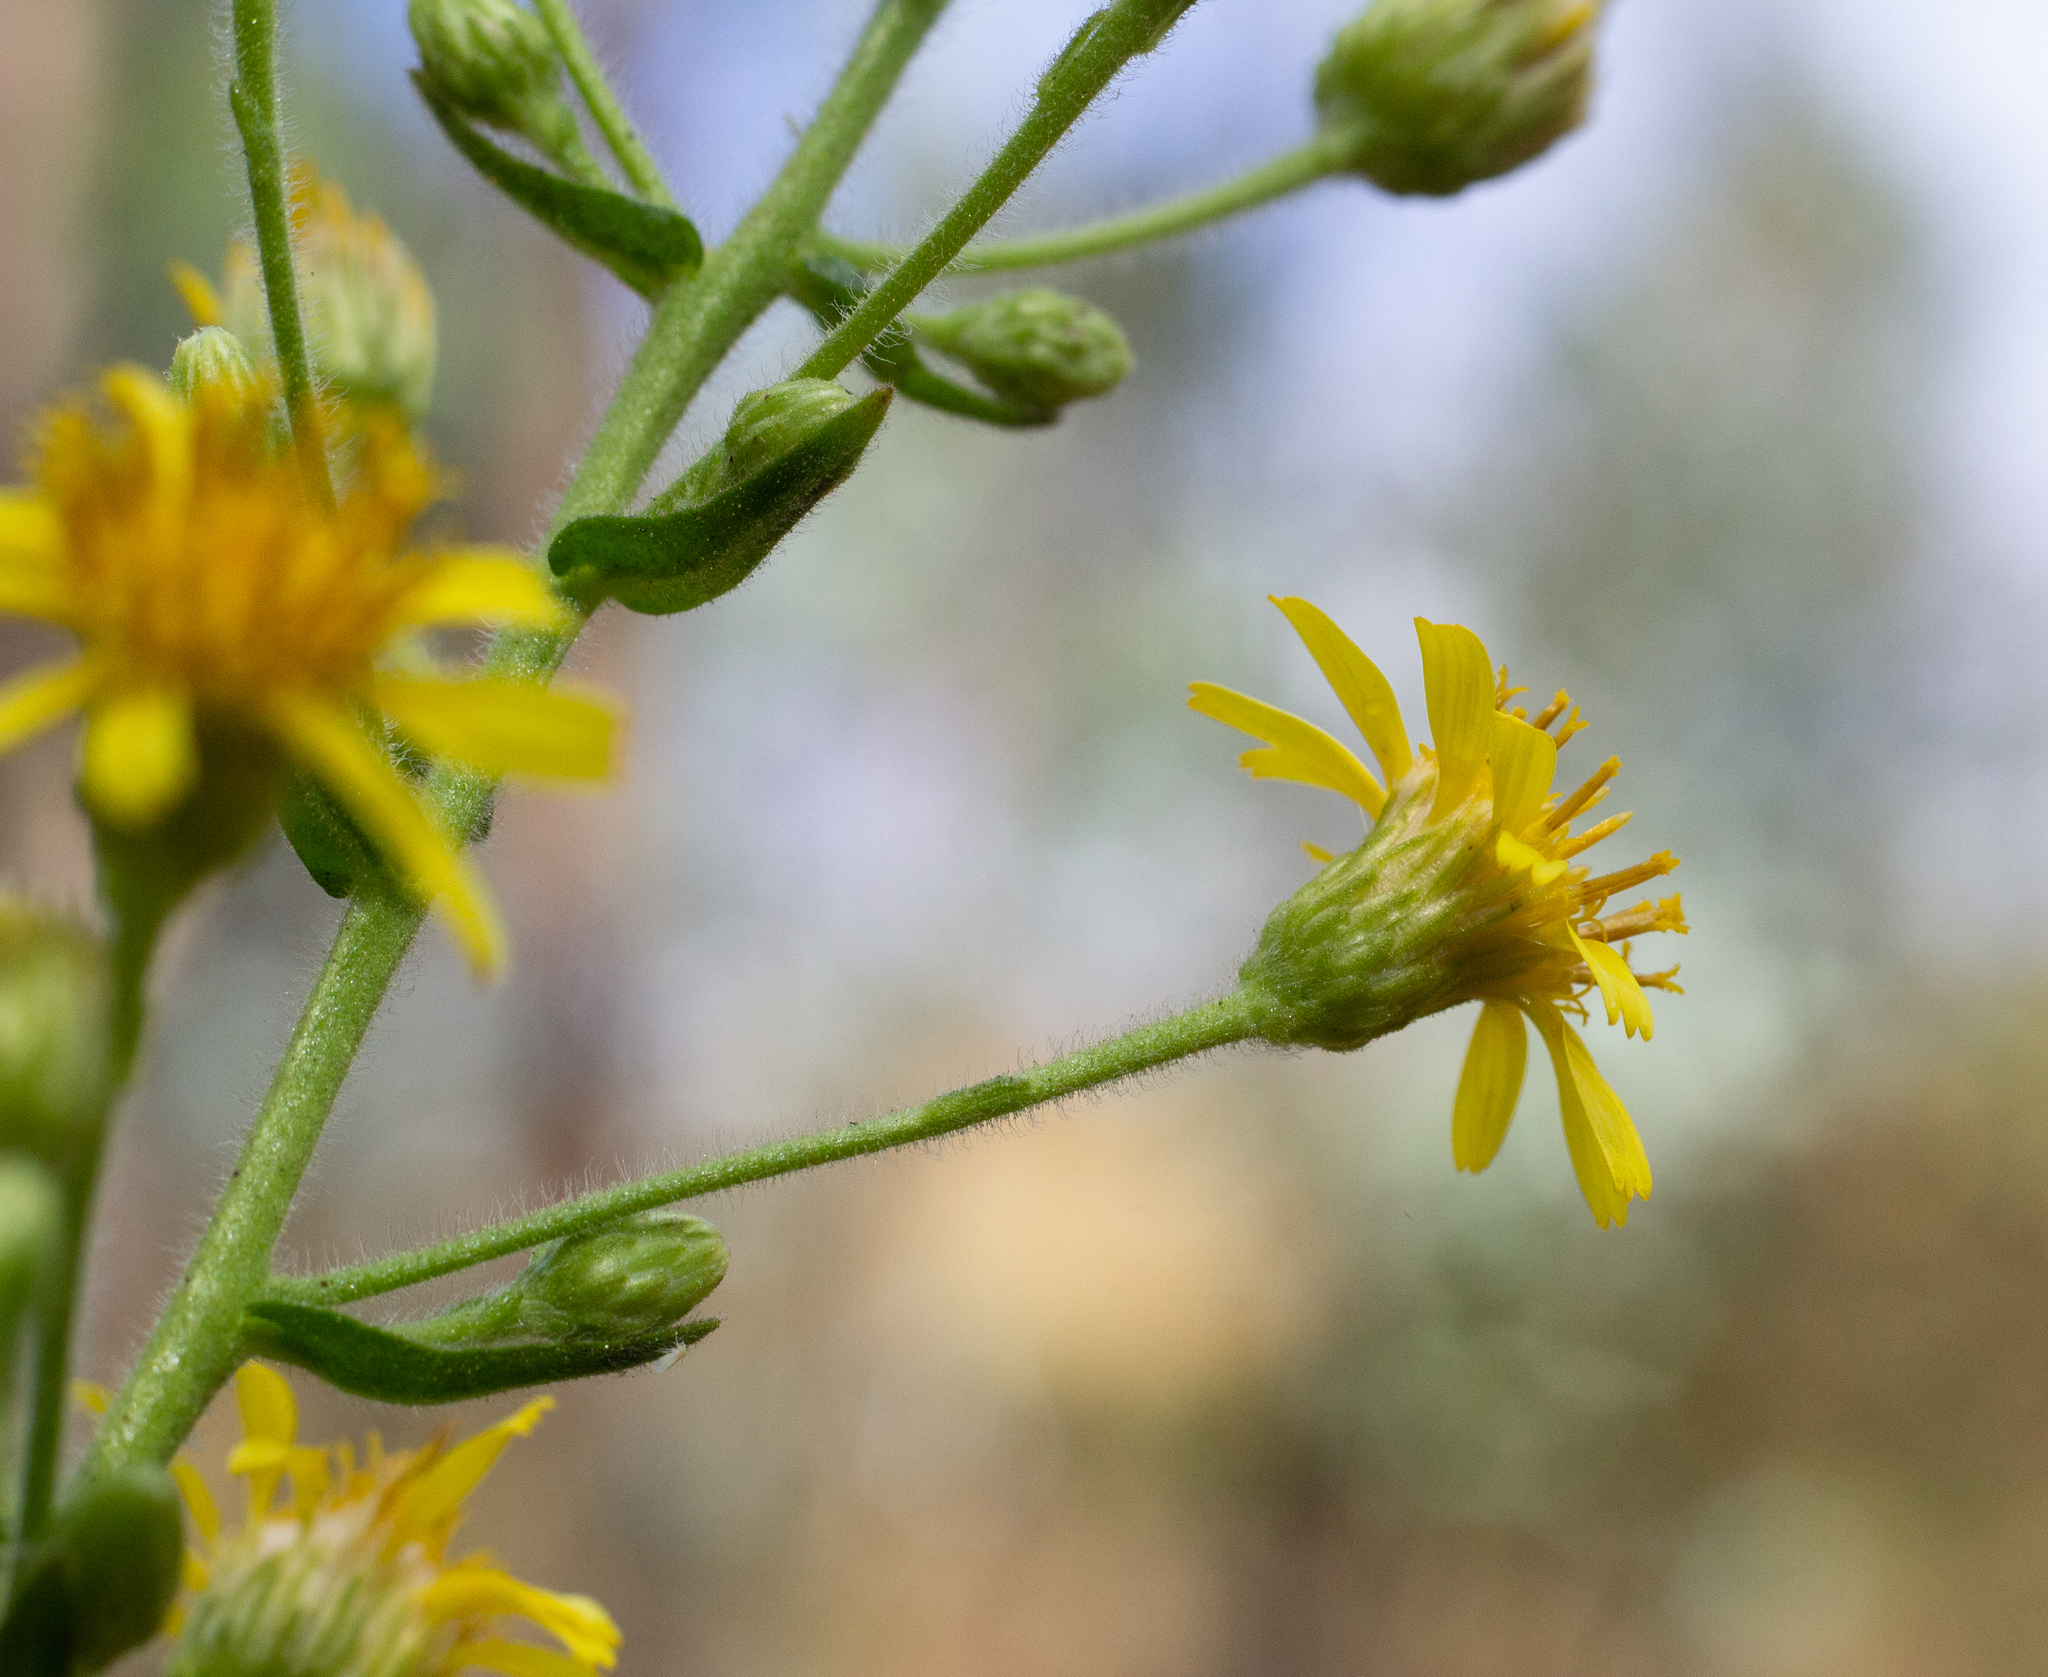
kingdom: Plantae
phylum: Tracheophyta
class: Magnoliopsida
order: Asterales
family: Asteraceae
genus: Dittrichia
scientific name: Dittrichia viscosa
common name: Woody fleabane
